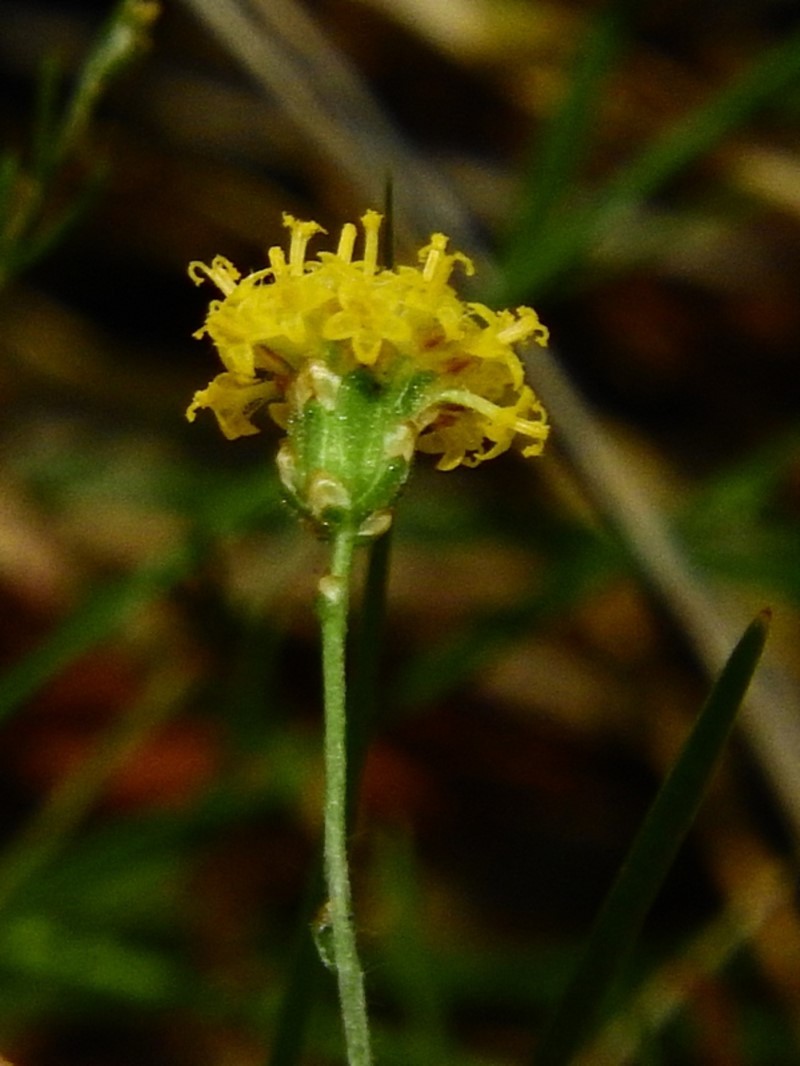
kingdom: Plantae
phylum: Tracheophyta
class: Magnoliopsida
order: Asterales
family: Asteraceae
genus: Leptorhynchos
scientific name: Leptorhynchos nitidulus
